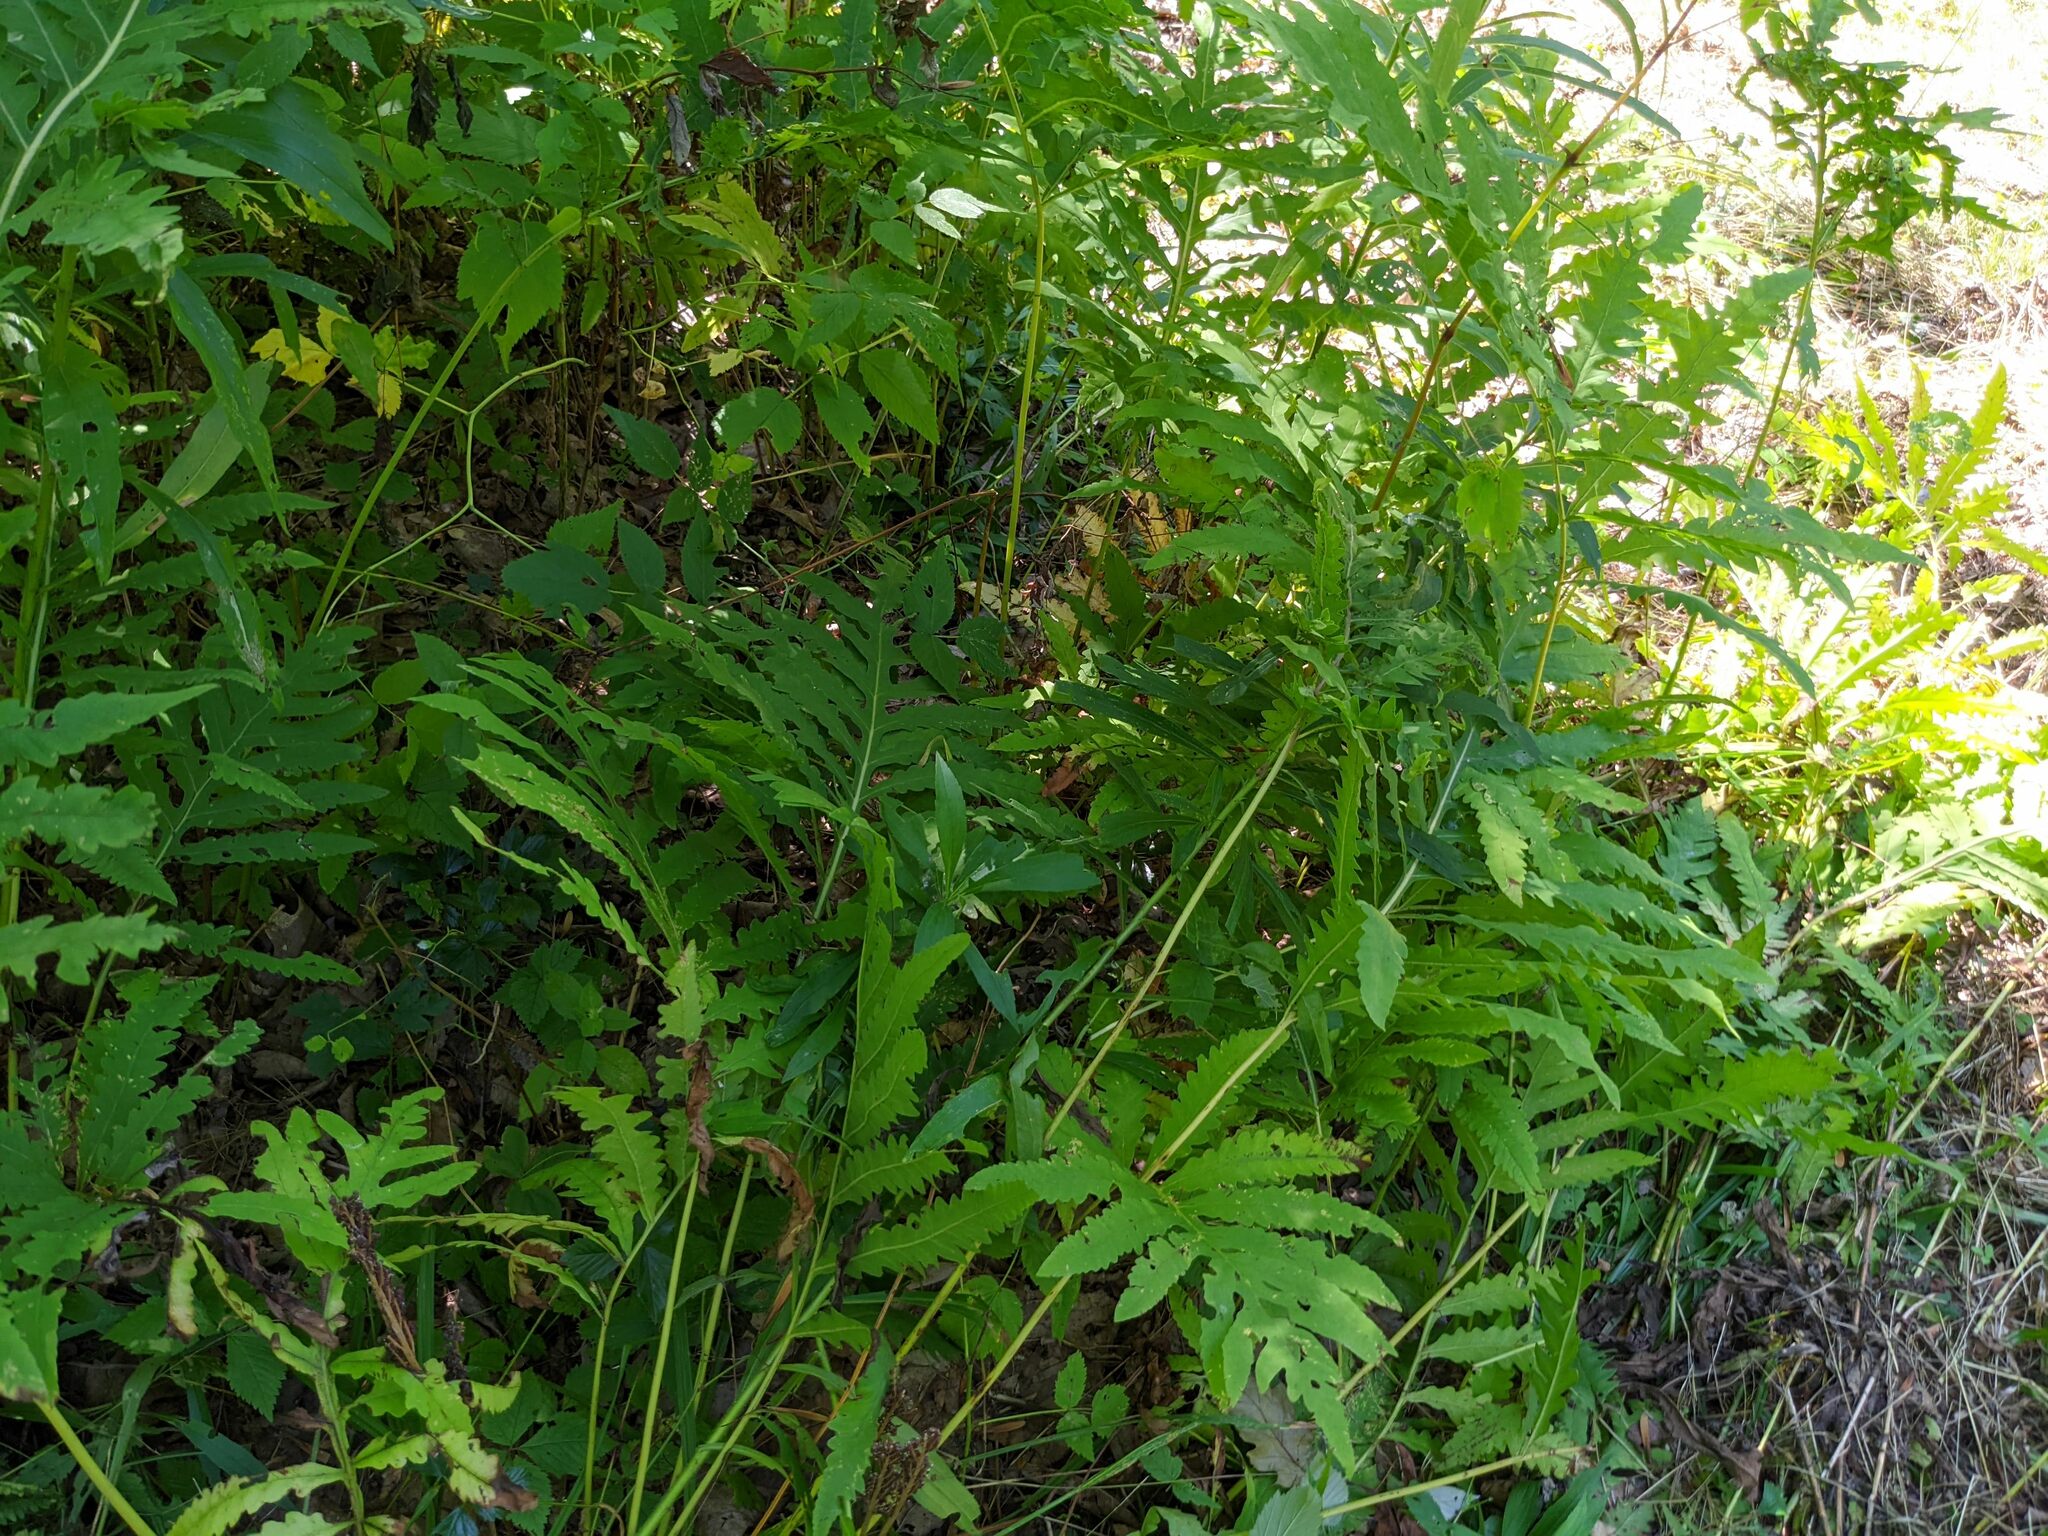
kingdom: Plantae
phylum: Tracheophyta
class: Polypodiopsida
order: Polypodiales
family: Onocleaceae
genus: Onoclea
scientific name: Onoclea sensibilis
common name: Sensitive fern
